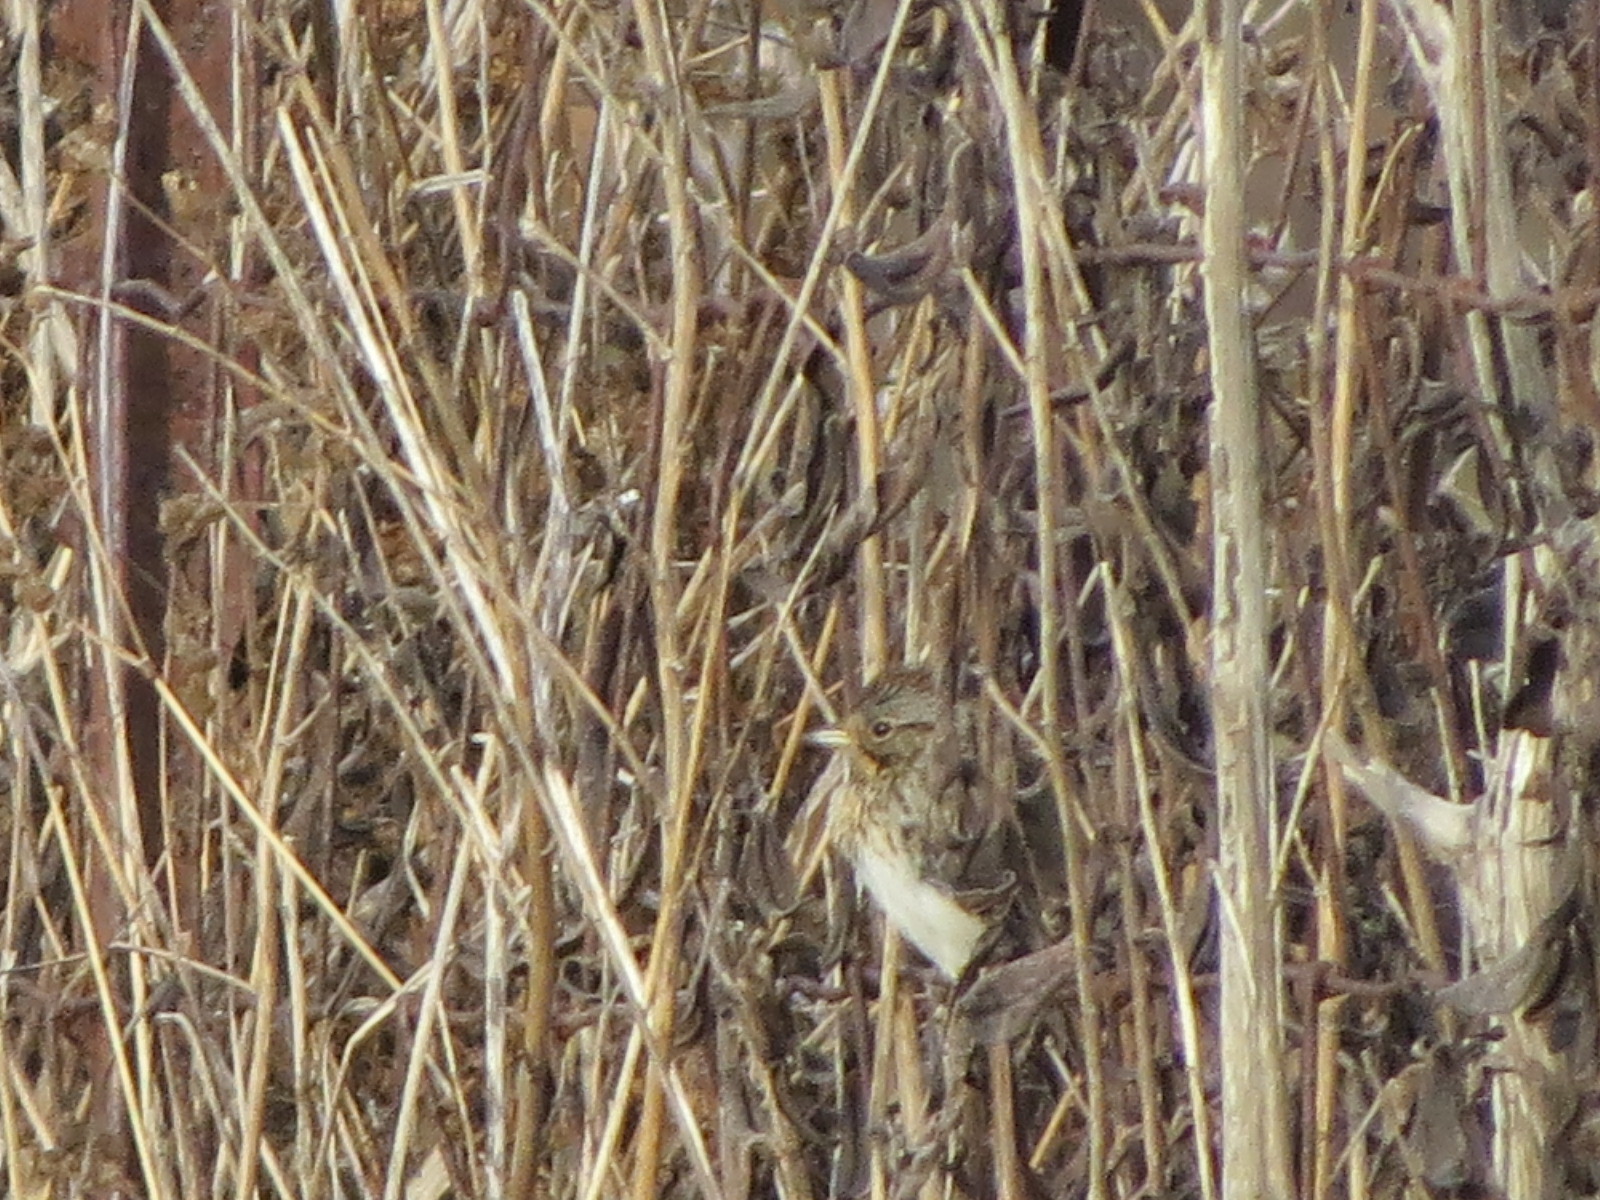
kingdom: Animalia
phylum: Chordata
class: Aves
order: Passeriformes
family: Passerellidae
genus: Melospiza
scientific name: Melospiza lincolnii
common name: Lincoln's sparrow
